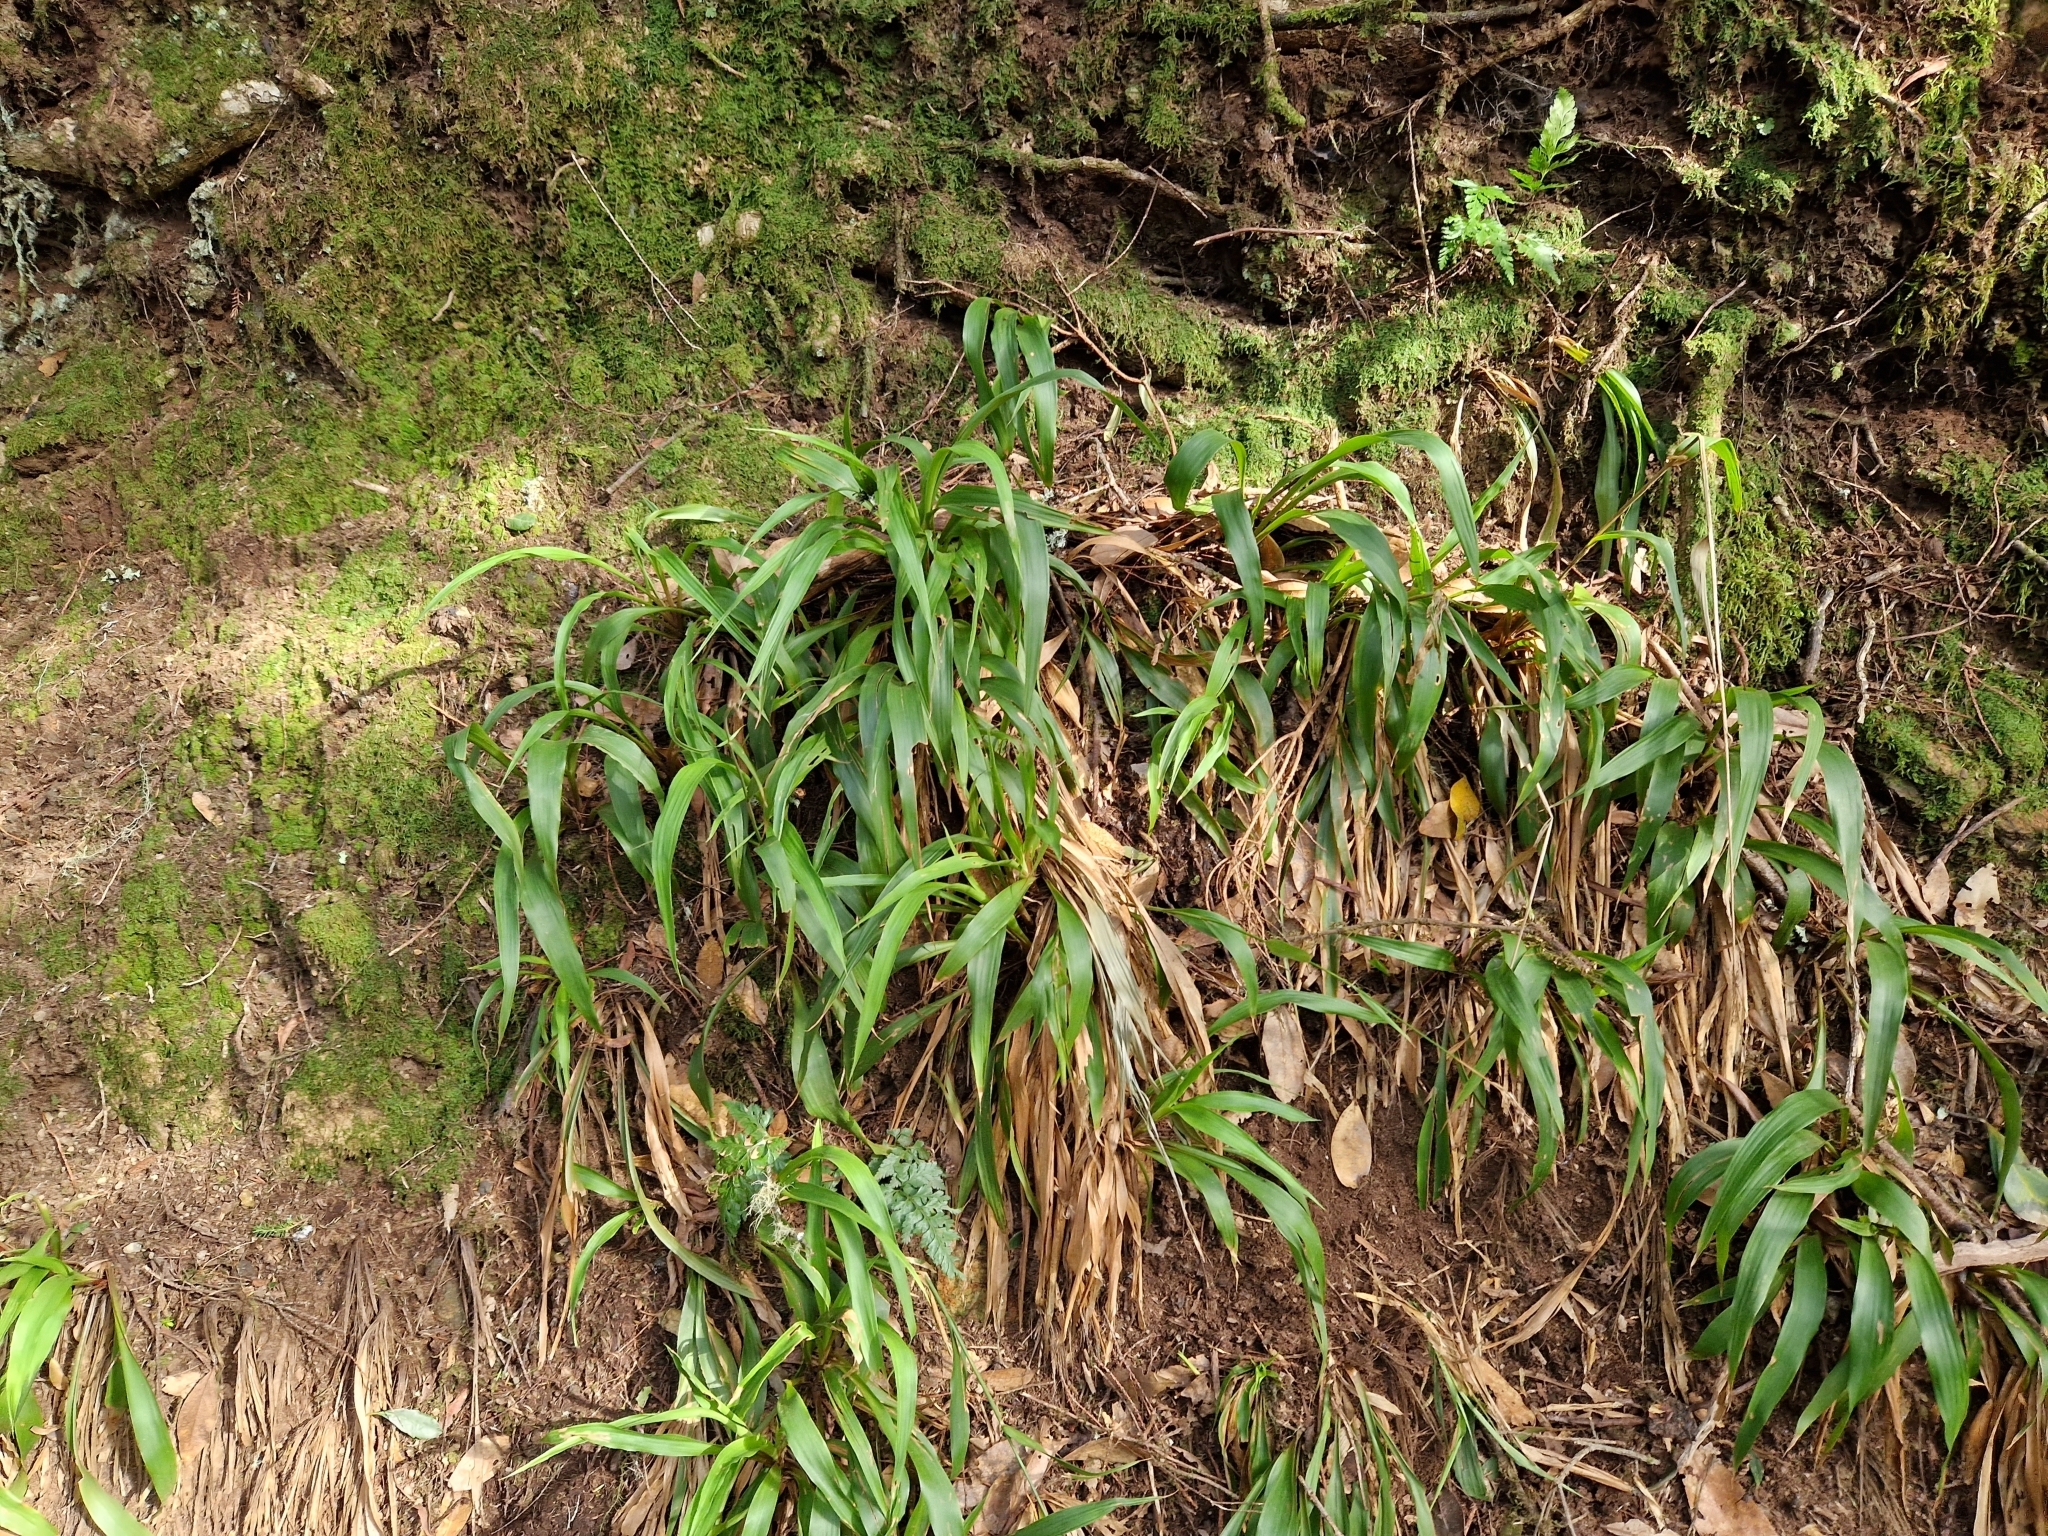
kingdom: Plantae
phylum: Tracheophyta
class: Liliopsida
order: Poales
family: Juncaceae
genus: Luzula
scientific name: Luzula canariensis
